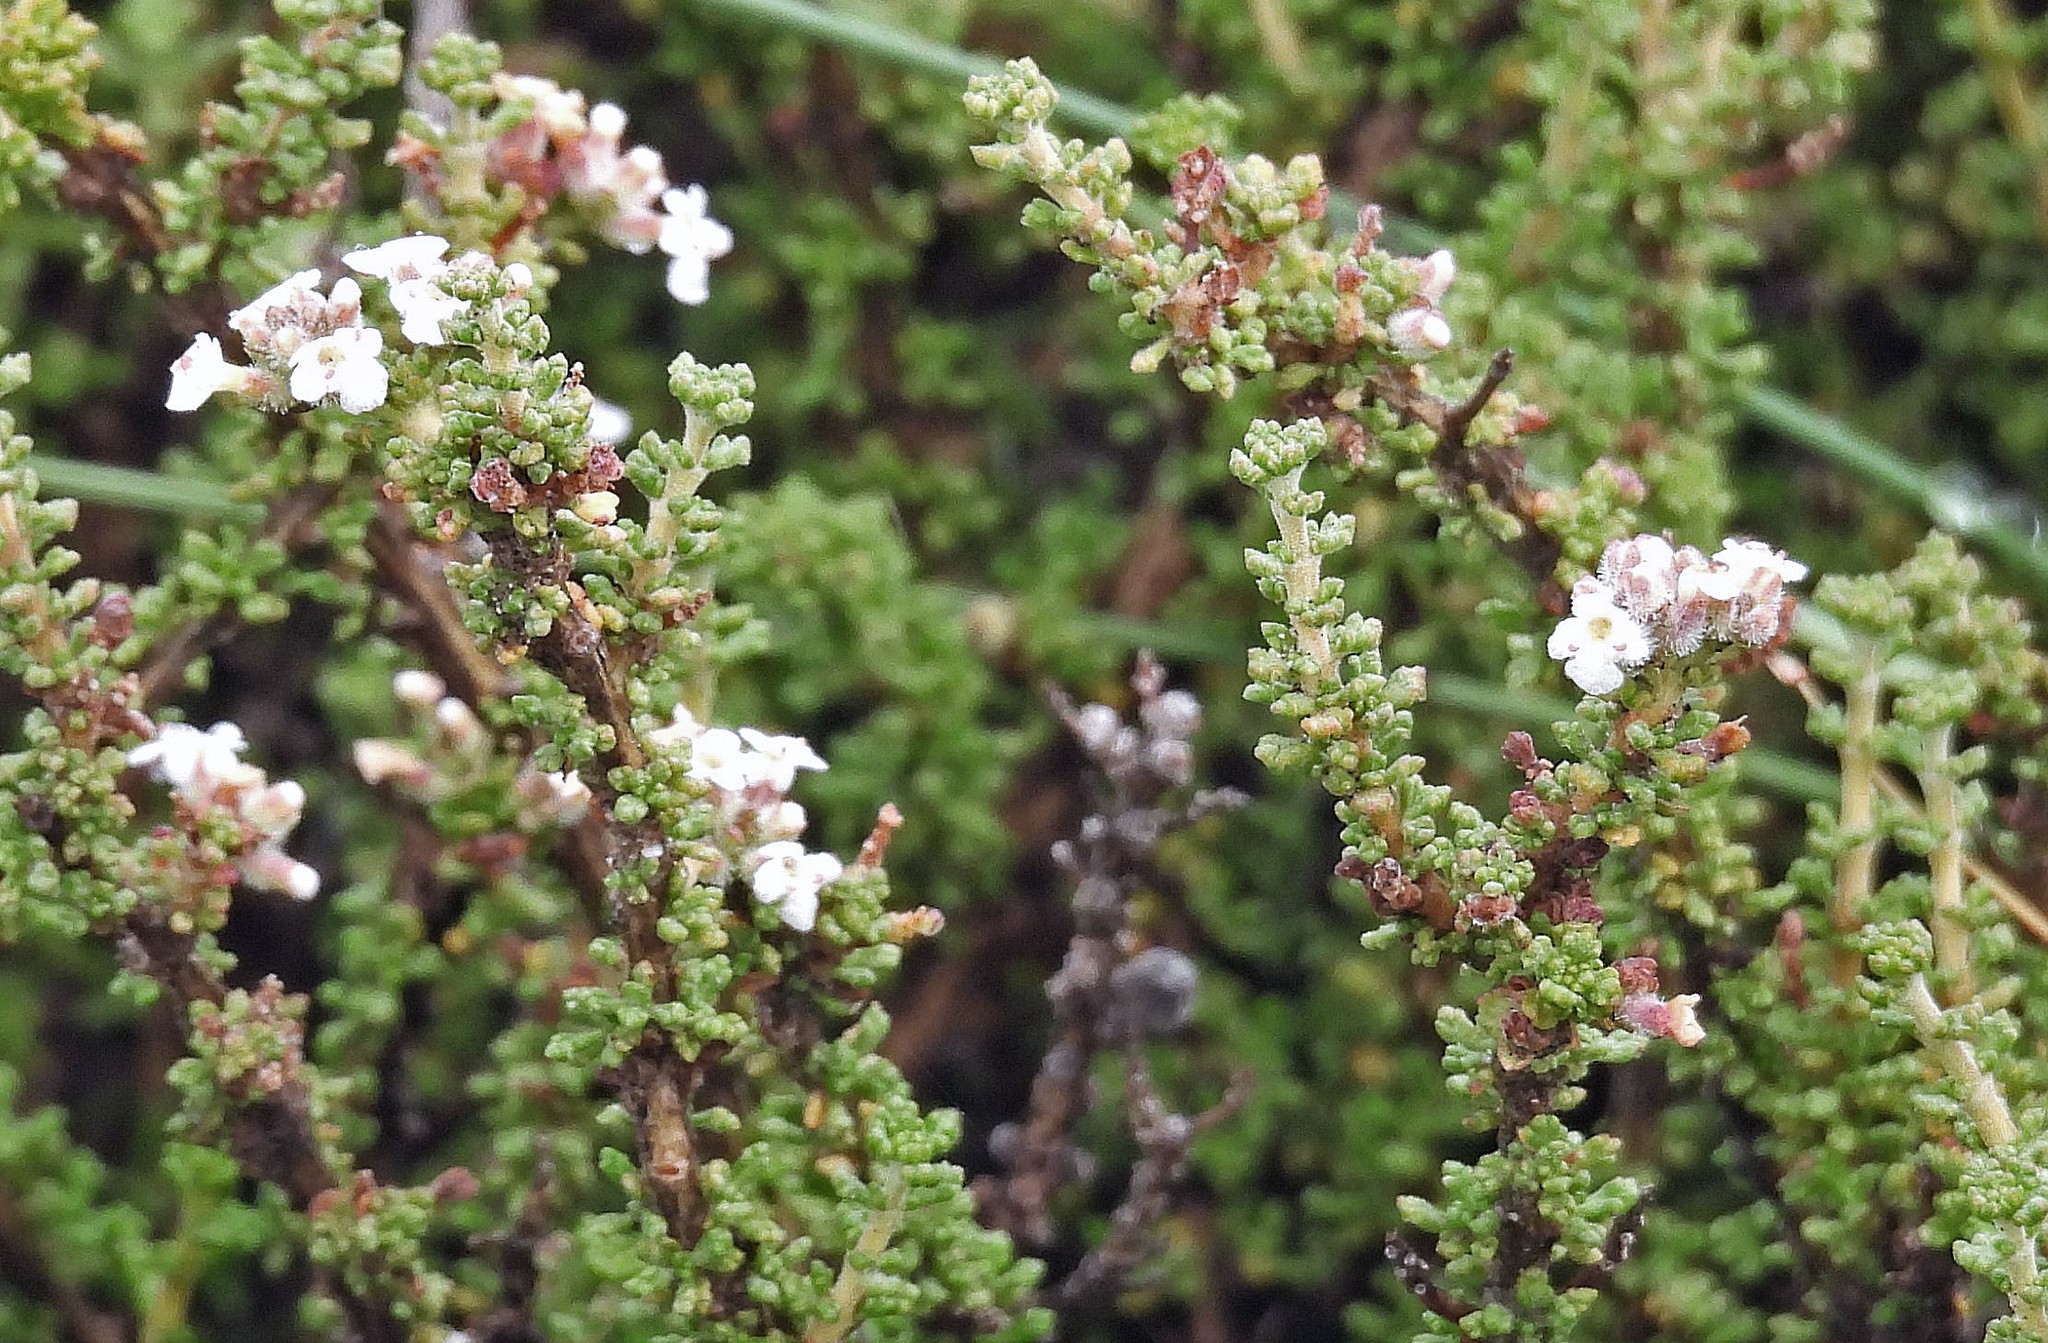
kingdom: Plantae
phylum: Tracheophyta
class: Magnoliopsida
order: Lamiales
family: Verbenaceae
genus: Acantholippia
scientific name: Acantholippia seriphioides
